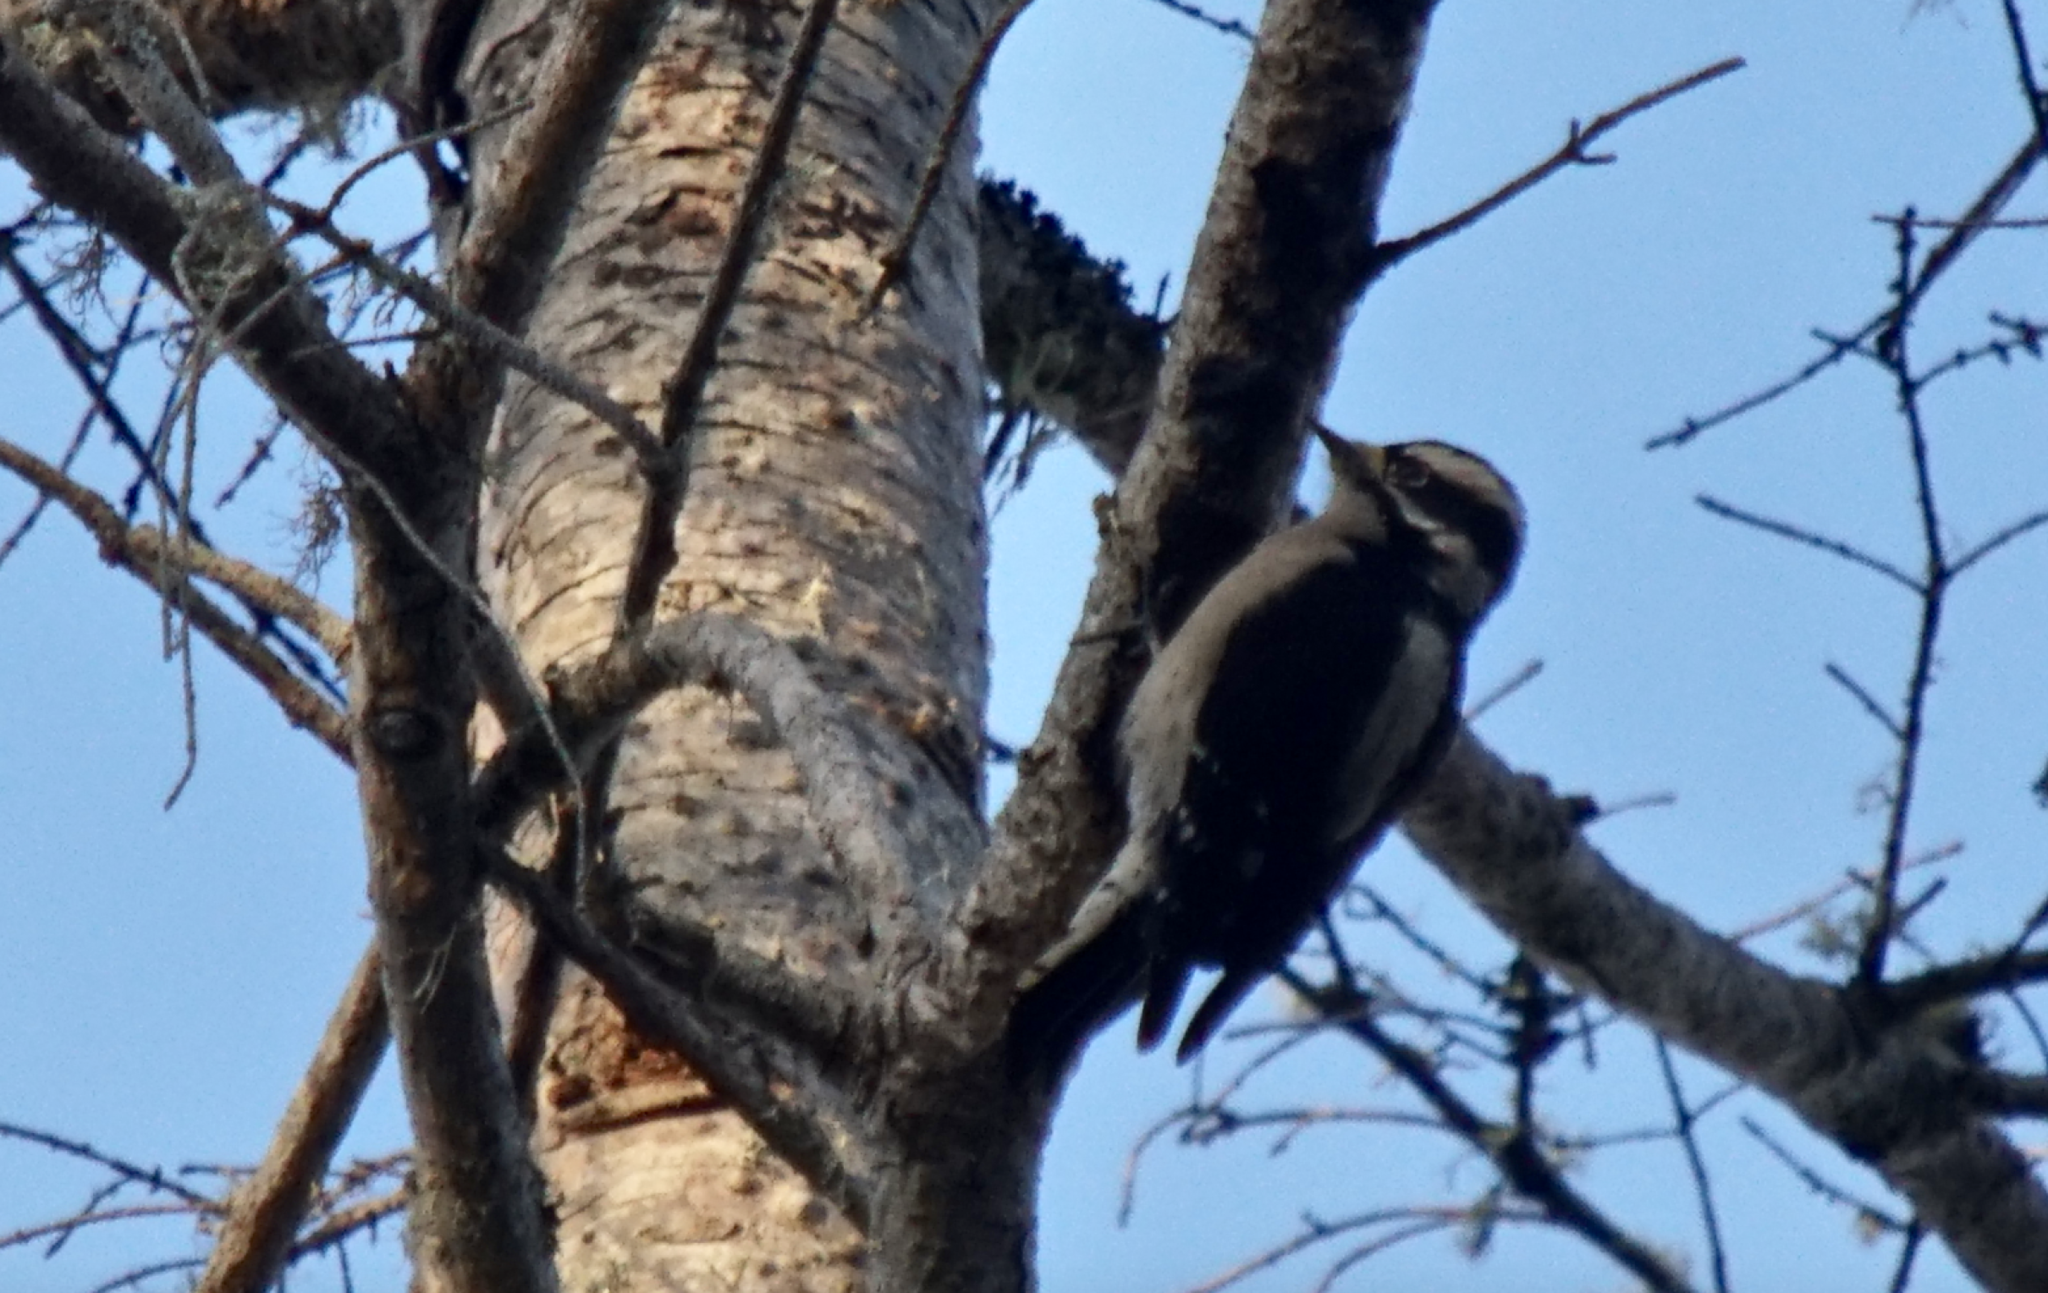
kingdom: Animalia
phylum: Chordata
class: Aves
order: Piciformes
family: Picidae
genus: Dryobates
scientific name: Dryobates pubescens
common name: Downy woodpecker
